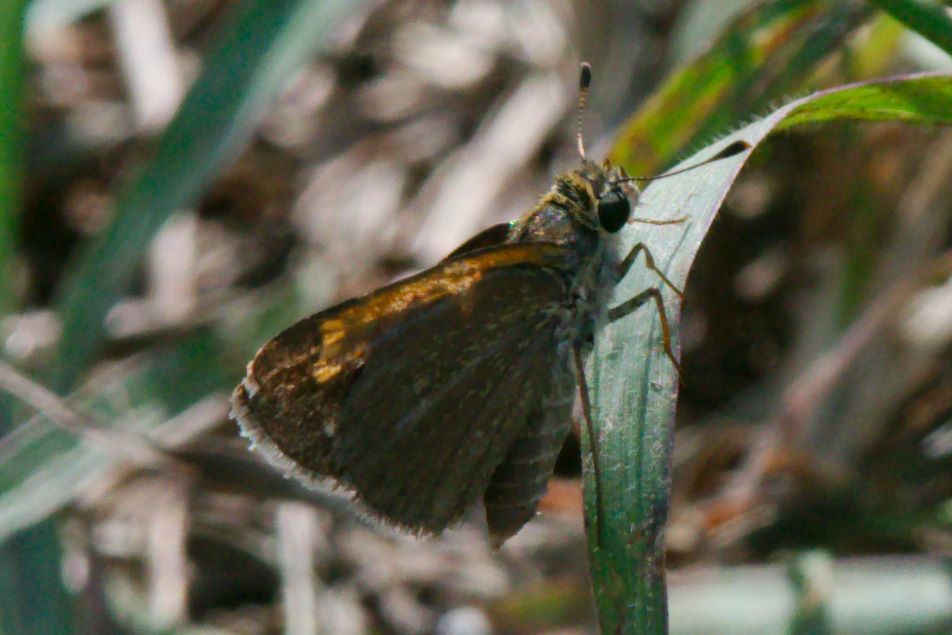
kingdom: Animalia
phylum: Arthropoda
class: Insecta
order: Lepidoptera
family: Hesperiidae
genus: Polites
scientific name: Polites baracoa
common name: Baracoa skipper
